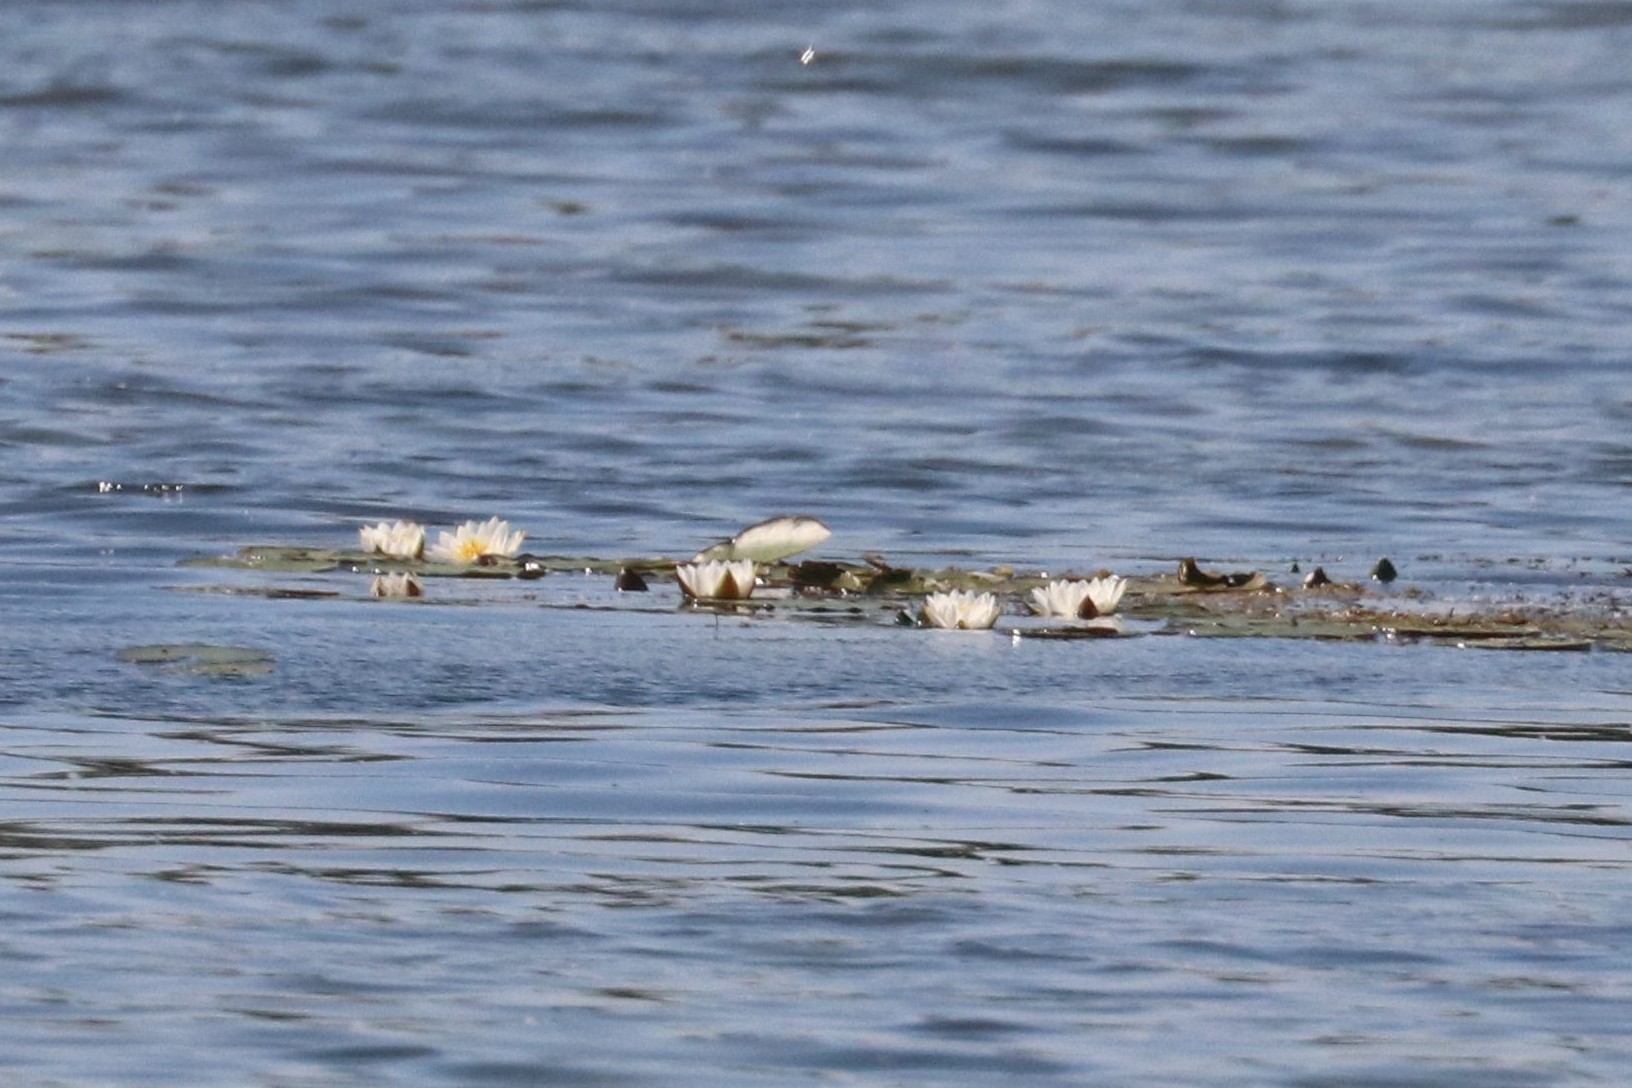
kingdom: Plantae
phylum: Tracheophyta
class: Magnoliopsida
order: Nymphaeales
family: Nymphaeaceae
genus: Nymphaea
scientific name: Nymphaea candida
